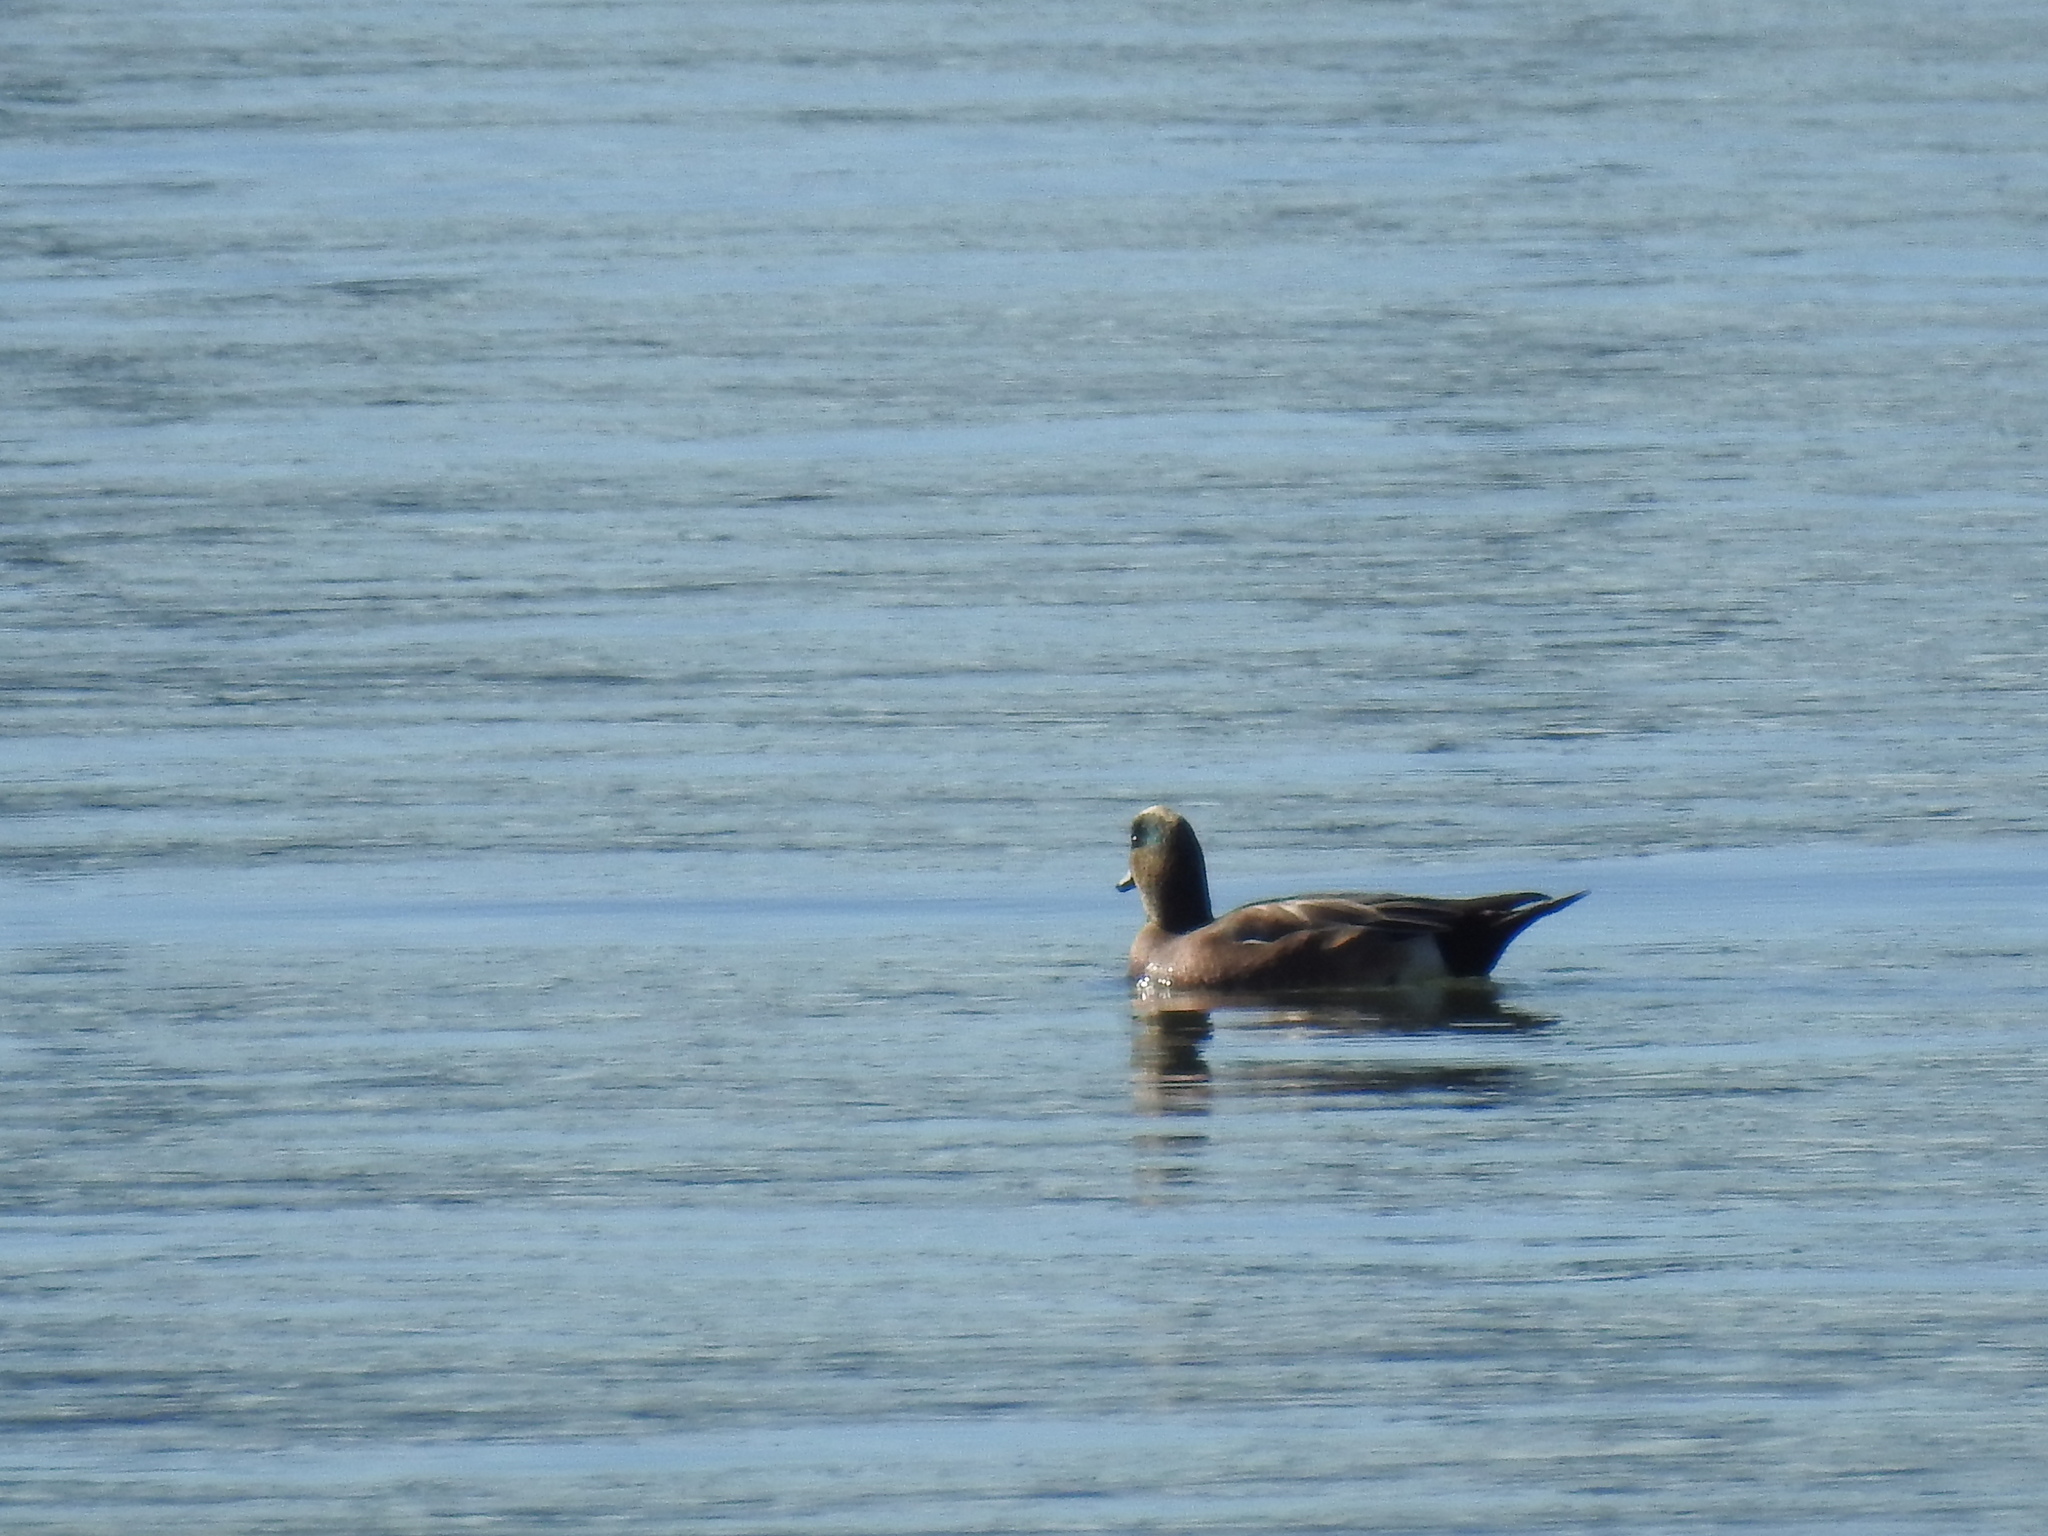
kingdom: Animalia
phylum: Chordata
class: Aves
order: Anseriformes
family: Anatidae
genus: Mareca
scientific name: Mareca americana
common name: American wigeon
